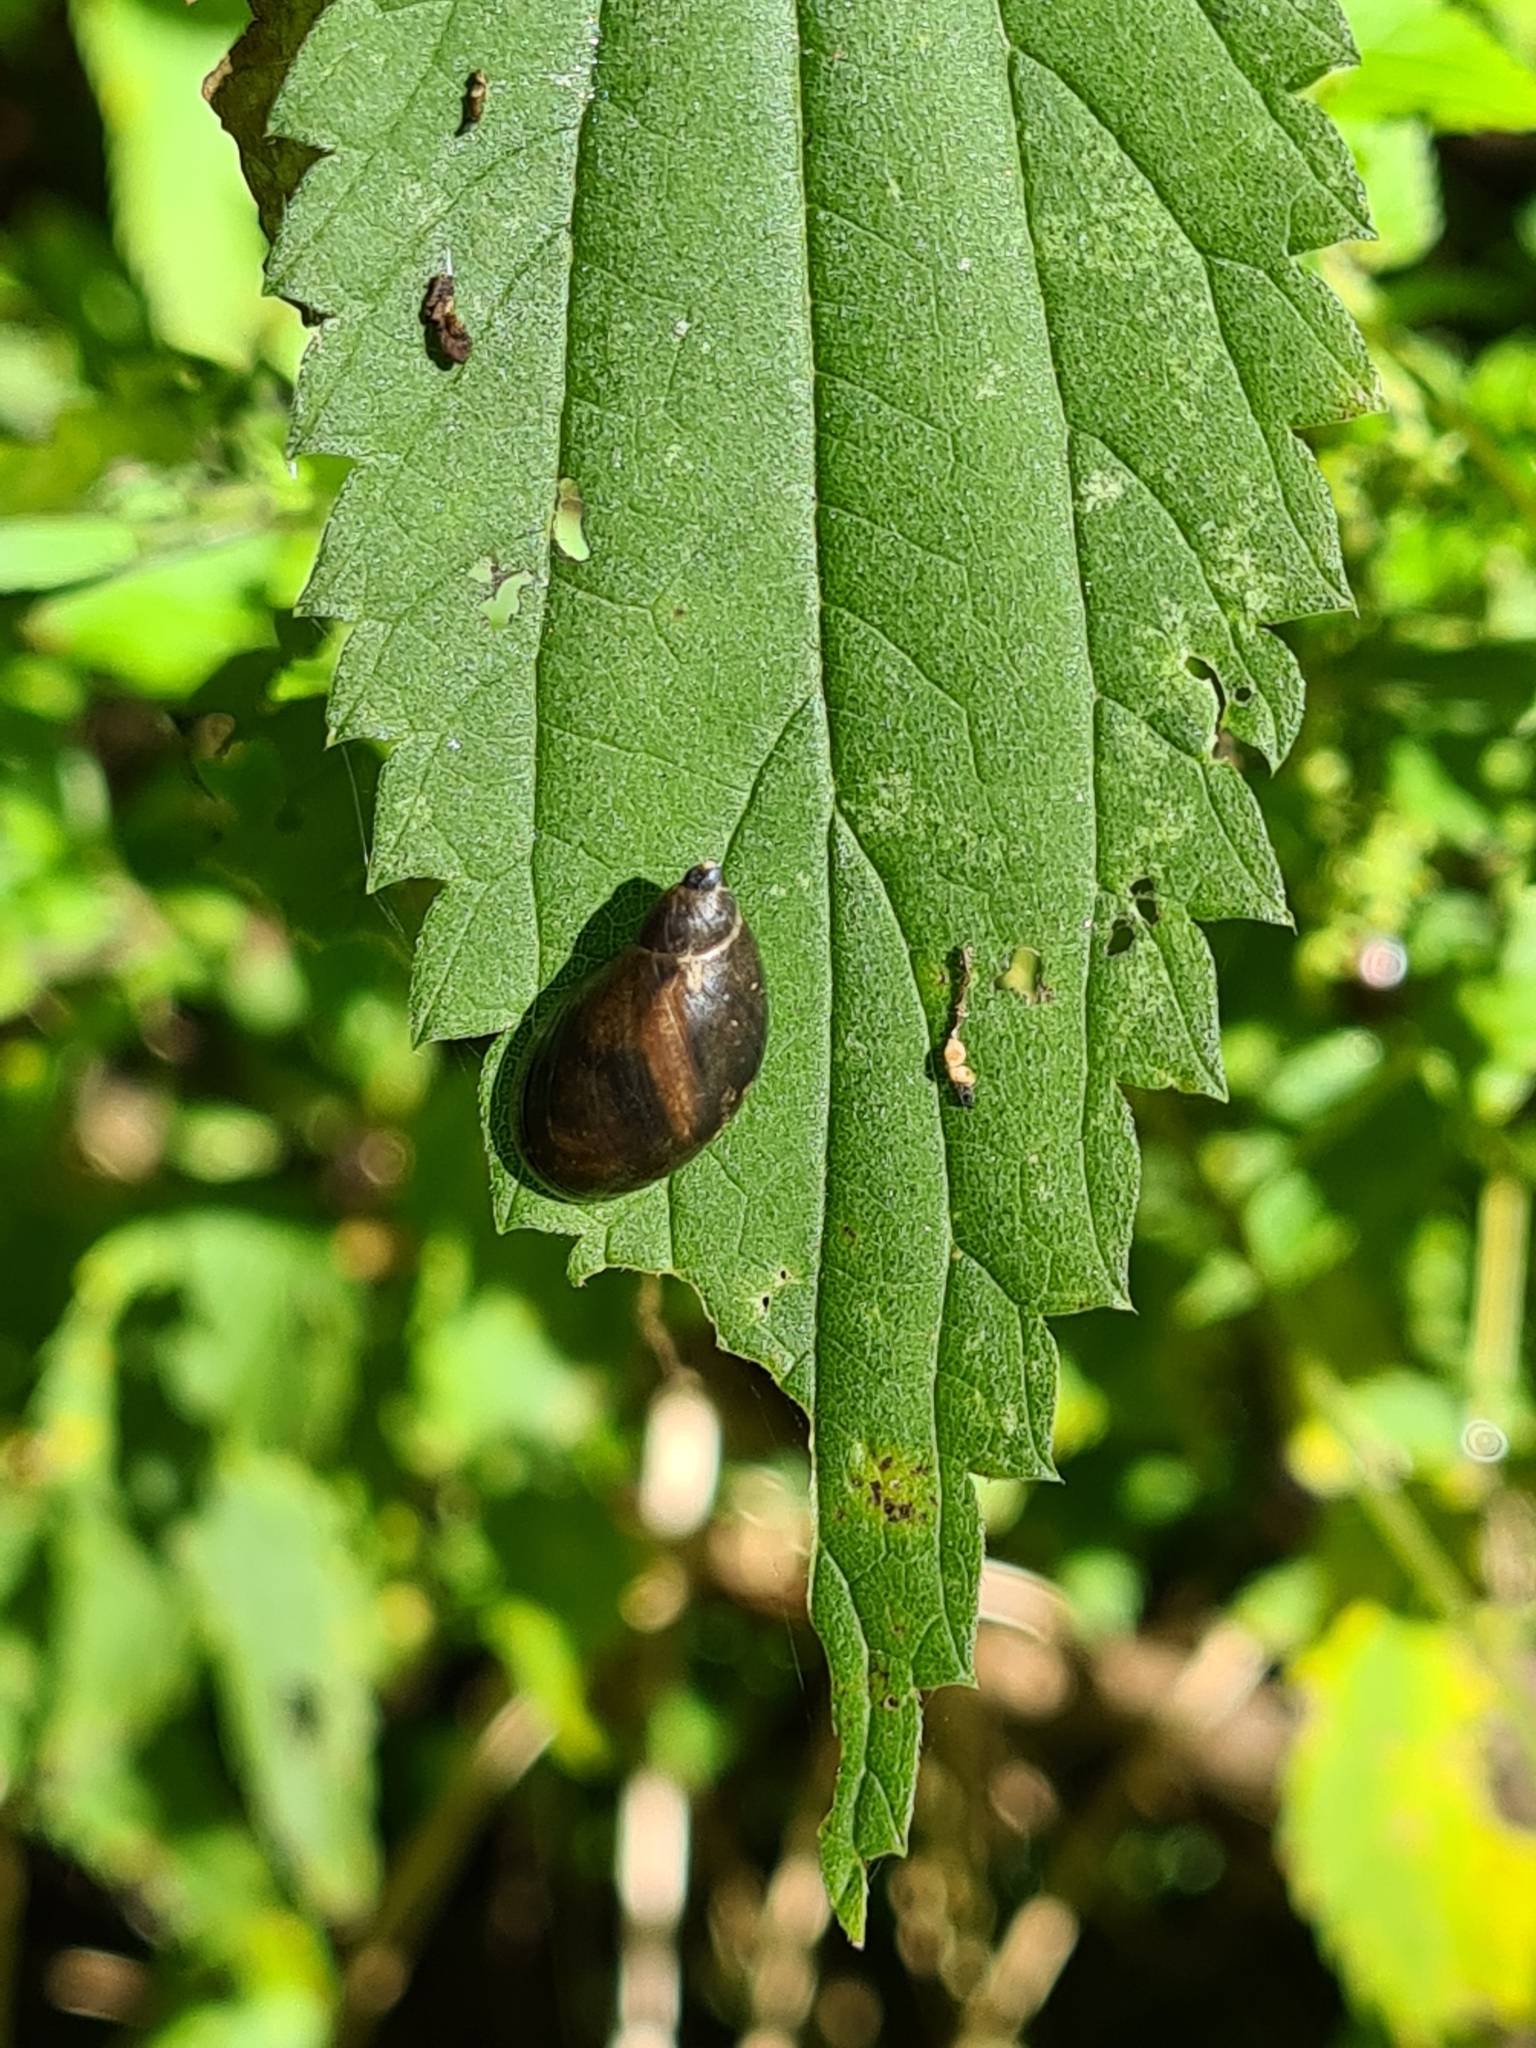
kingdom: Animalia
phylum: Mollusca
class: Gastropoda
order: Stylommatophora
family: Succineidae
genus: Succinea
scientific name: Succinea putris
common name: European ambersnail
